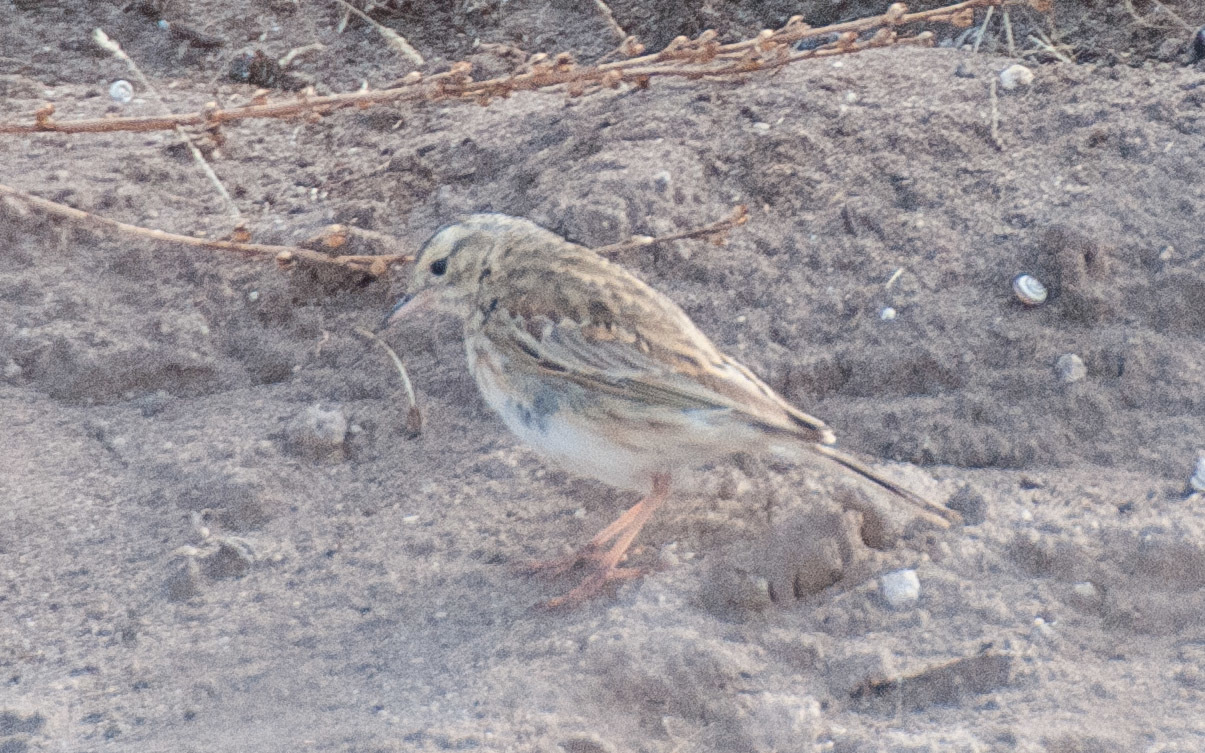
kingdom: Animalia
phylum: Chordata
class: Aves
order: Passeriformes
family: Motacillidae
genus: Anthus
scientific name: Anthus australis
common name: Australian pipit
